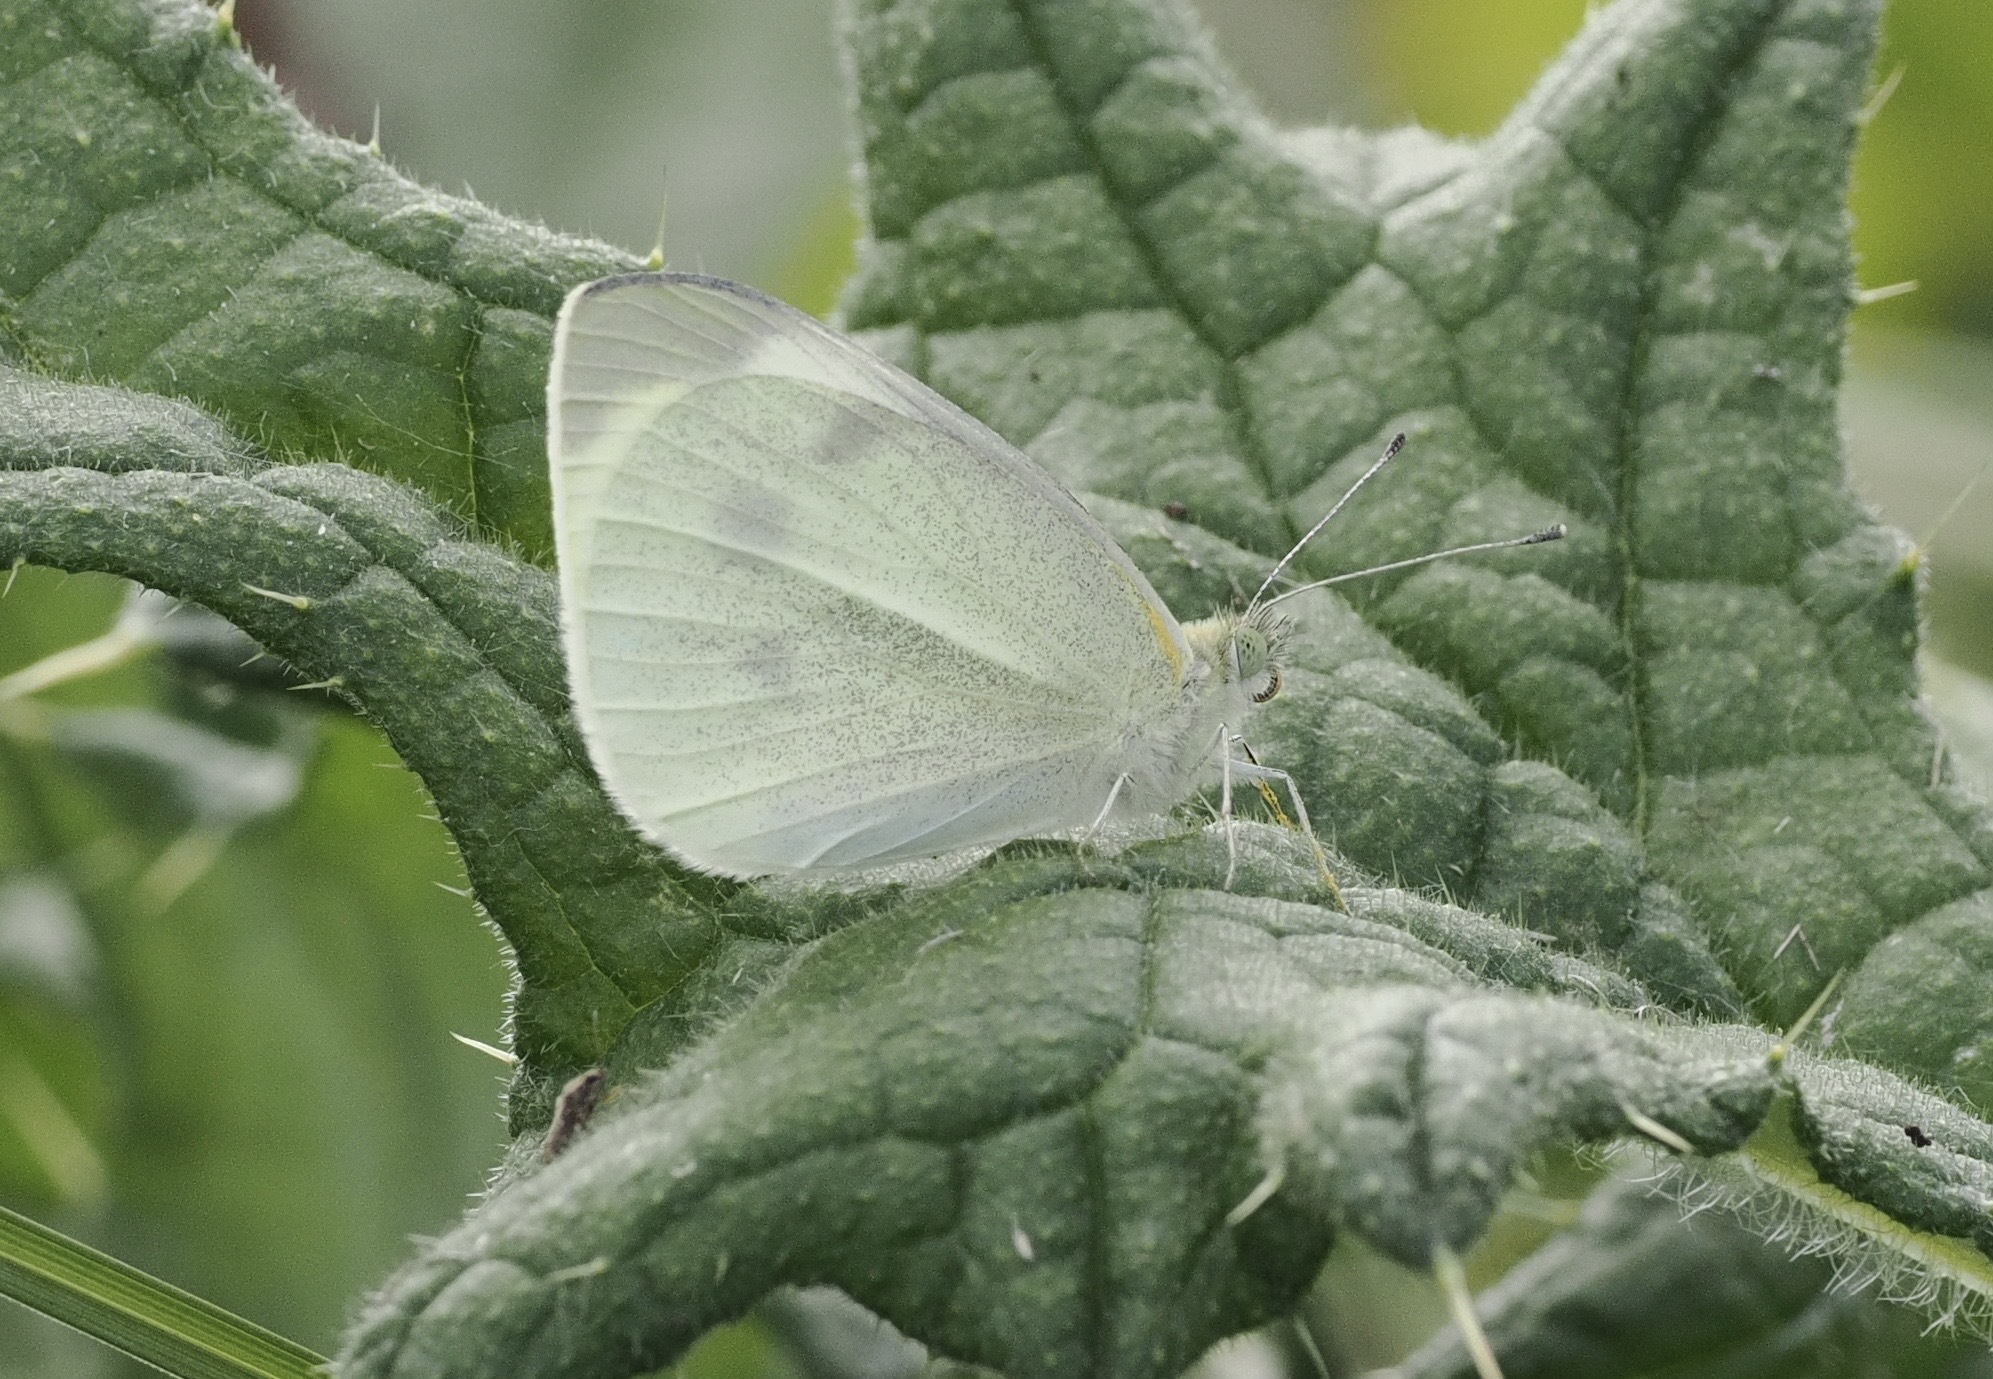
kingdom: Animalia
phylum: Arthropoda
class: Insecta
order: Lepidoptera
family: Pieridae
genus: Pieris
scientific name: Pieris rapae
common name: Small white
